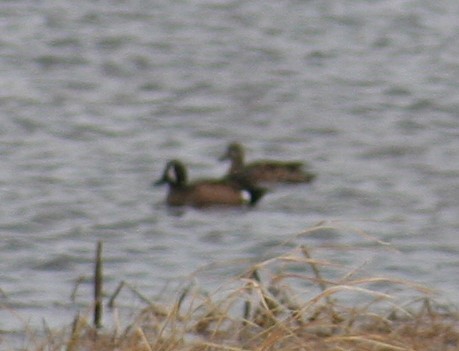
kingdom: Animalia
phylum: Chordata
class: Aves
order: Anseriformes
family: Anatidae
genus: Spatula
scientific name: Spatula discors
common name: Blue-winged teal
